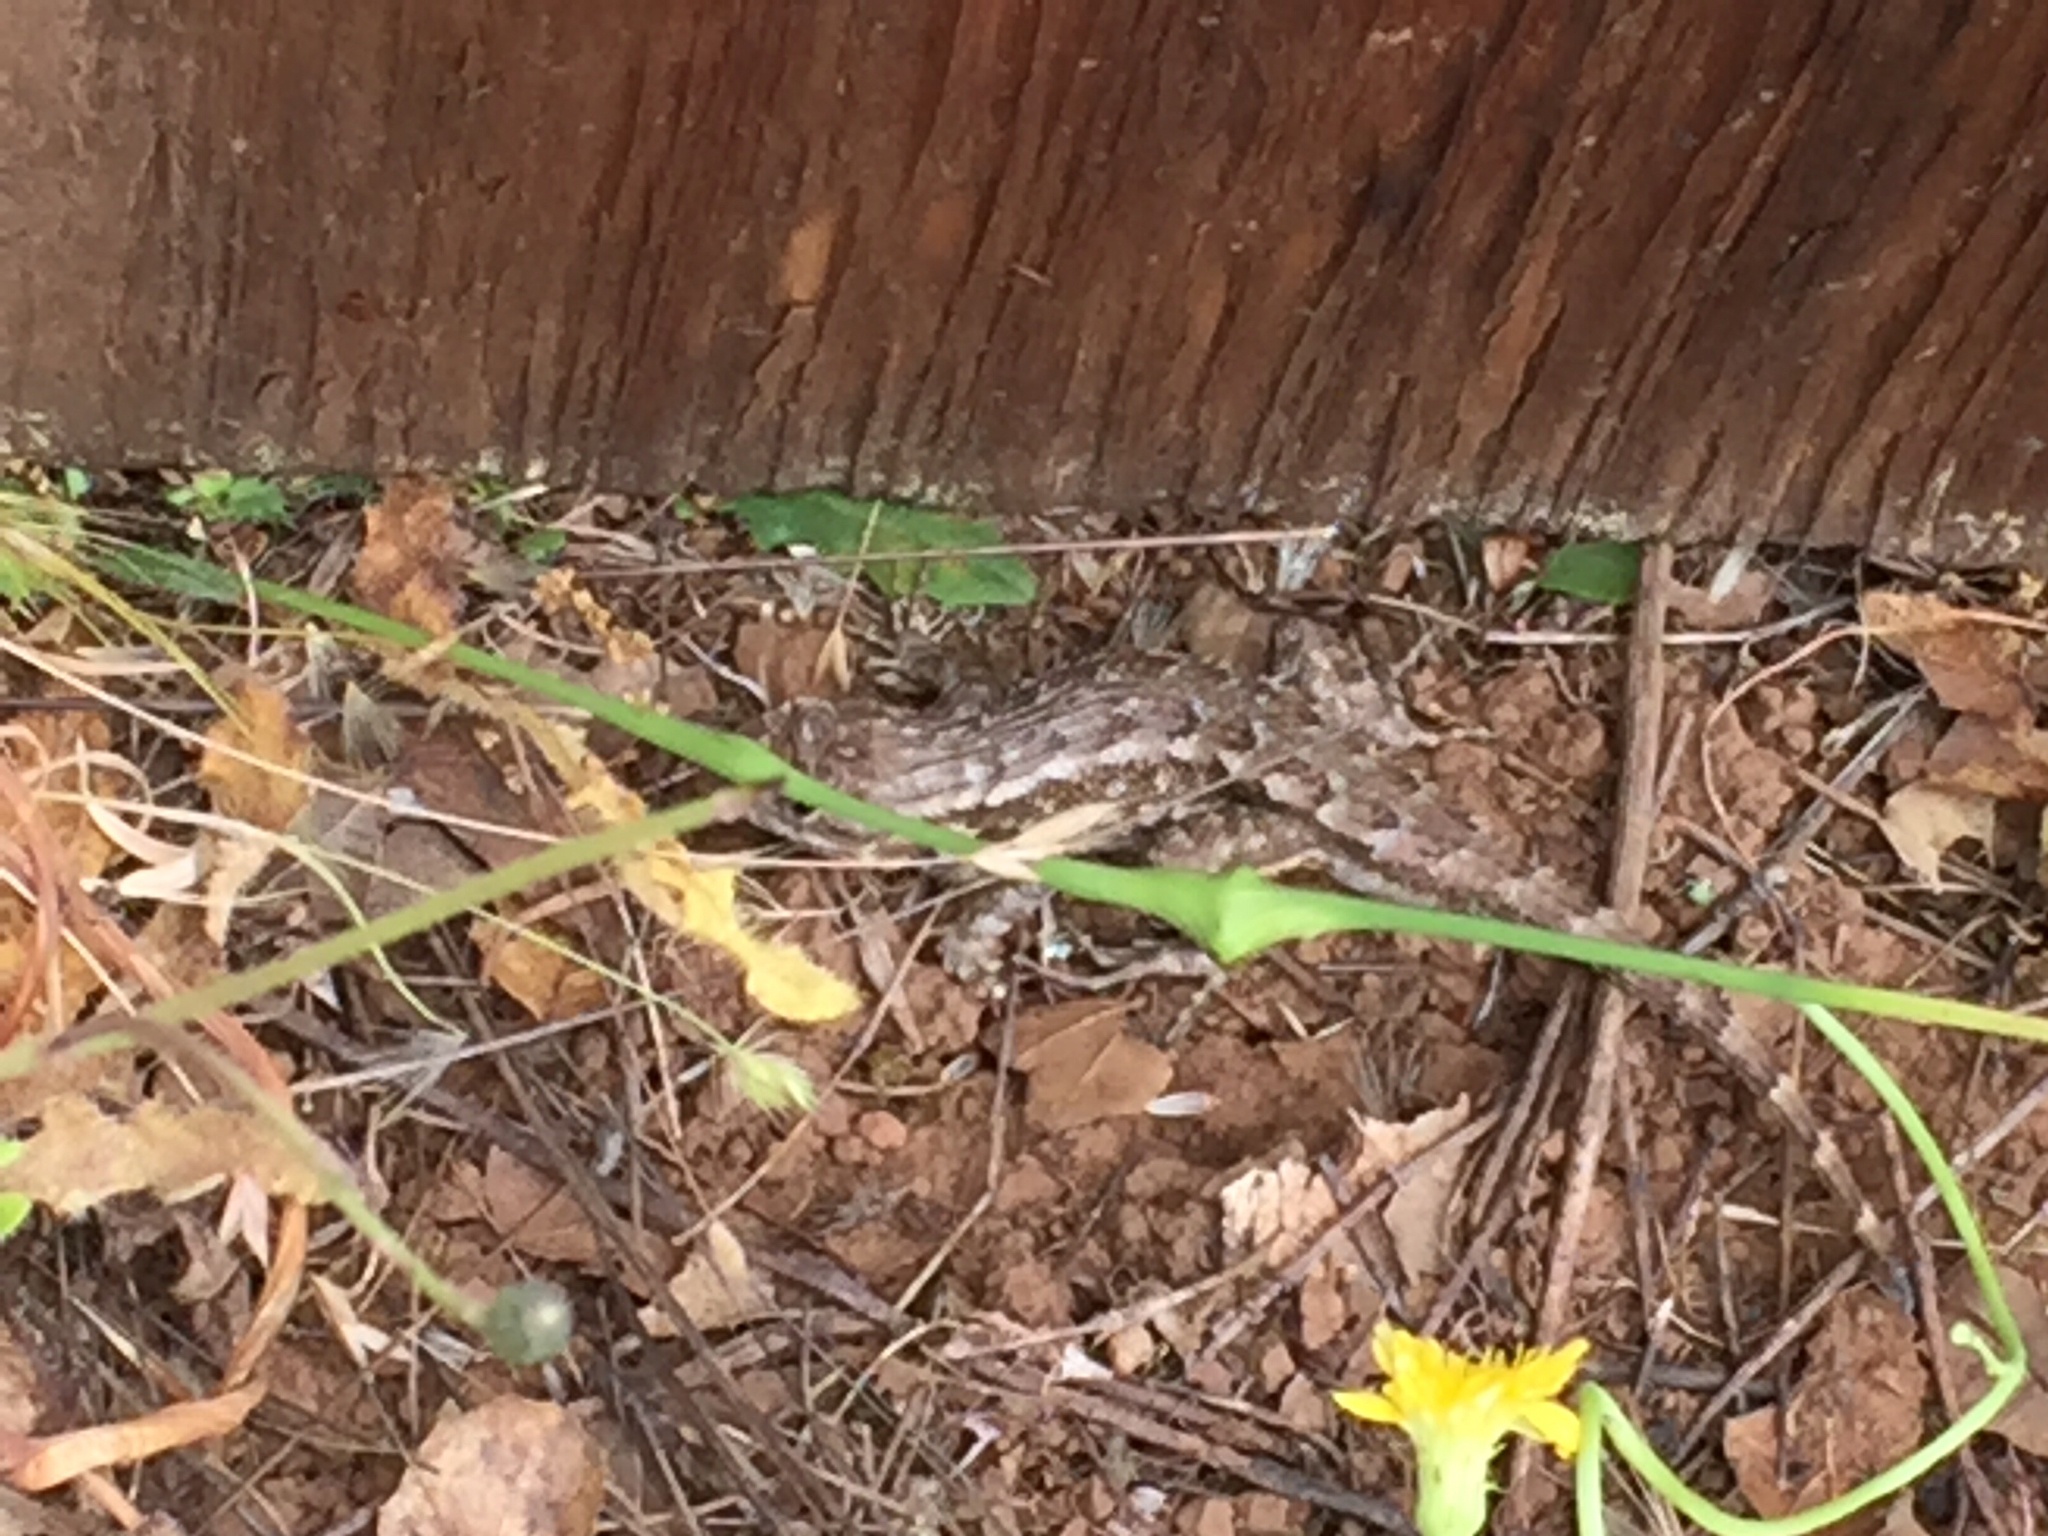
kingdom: Animalia
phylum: Chordata
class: Squamata
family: Phrynosomatidae
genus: Sceloporus
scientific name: Sceloporus occidentalis
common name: Western fence lizard
